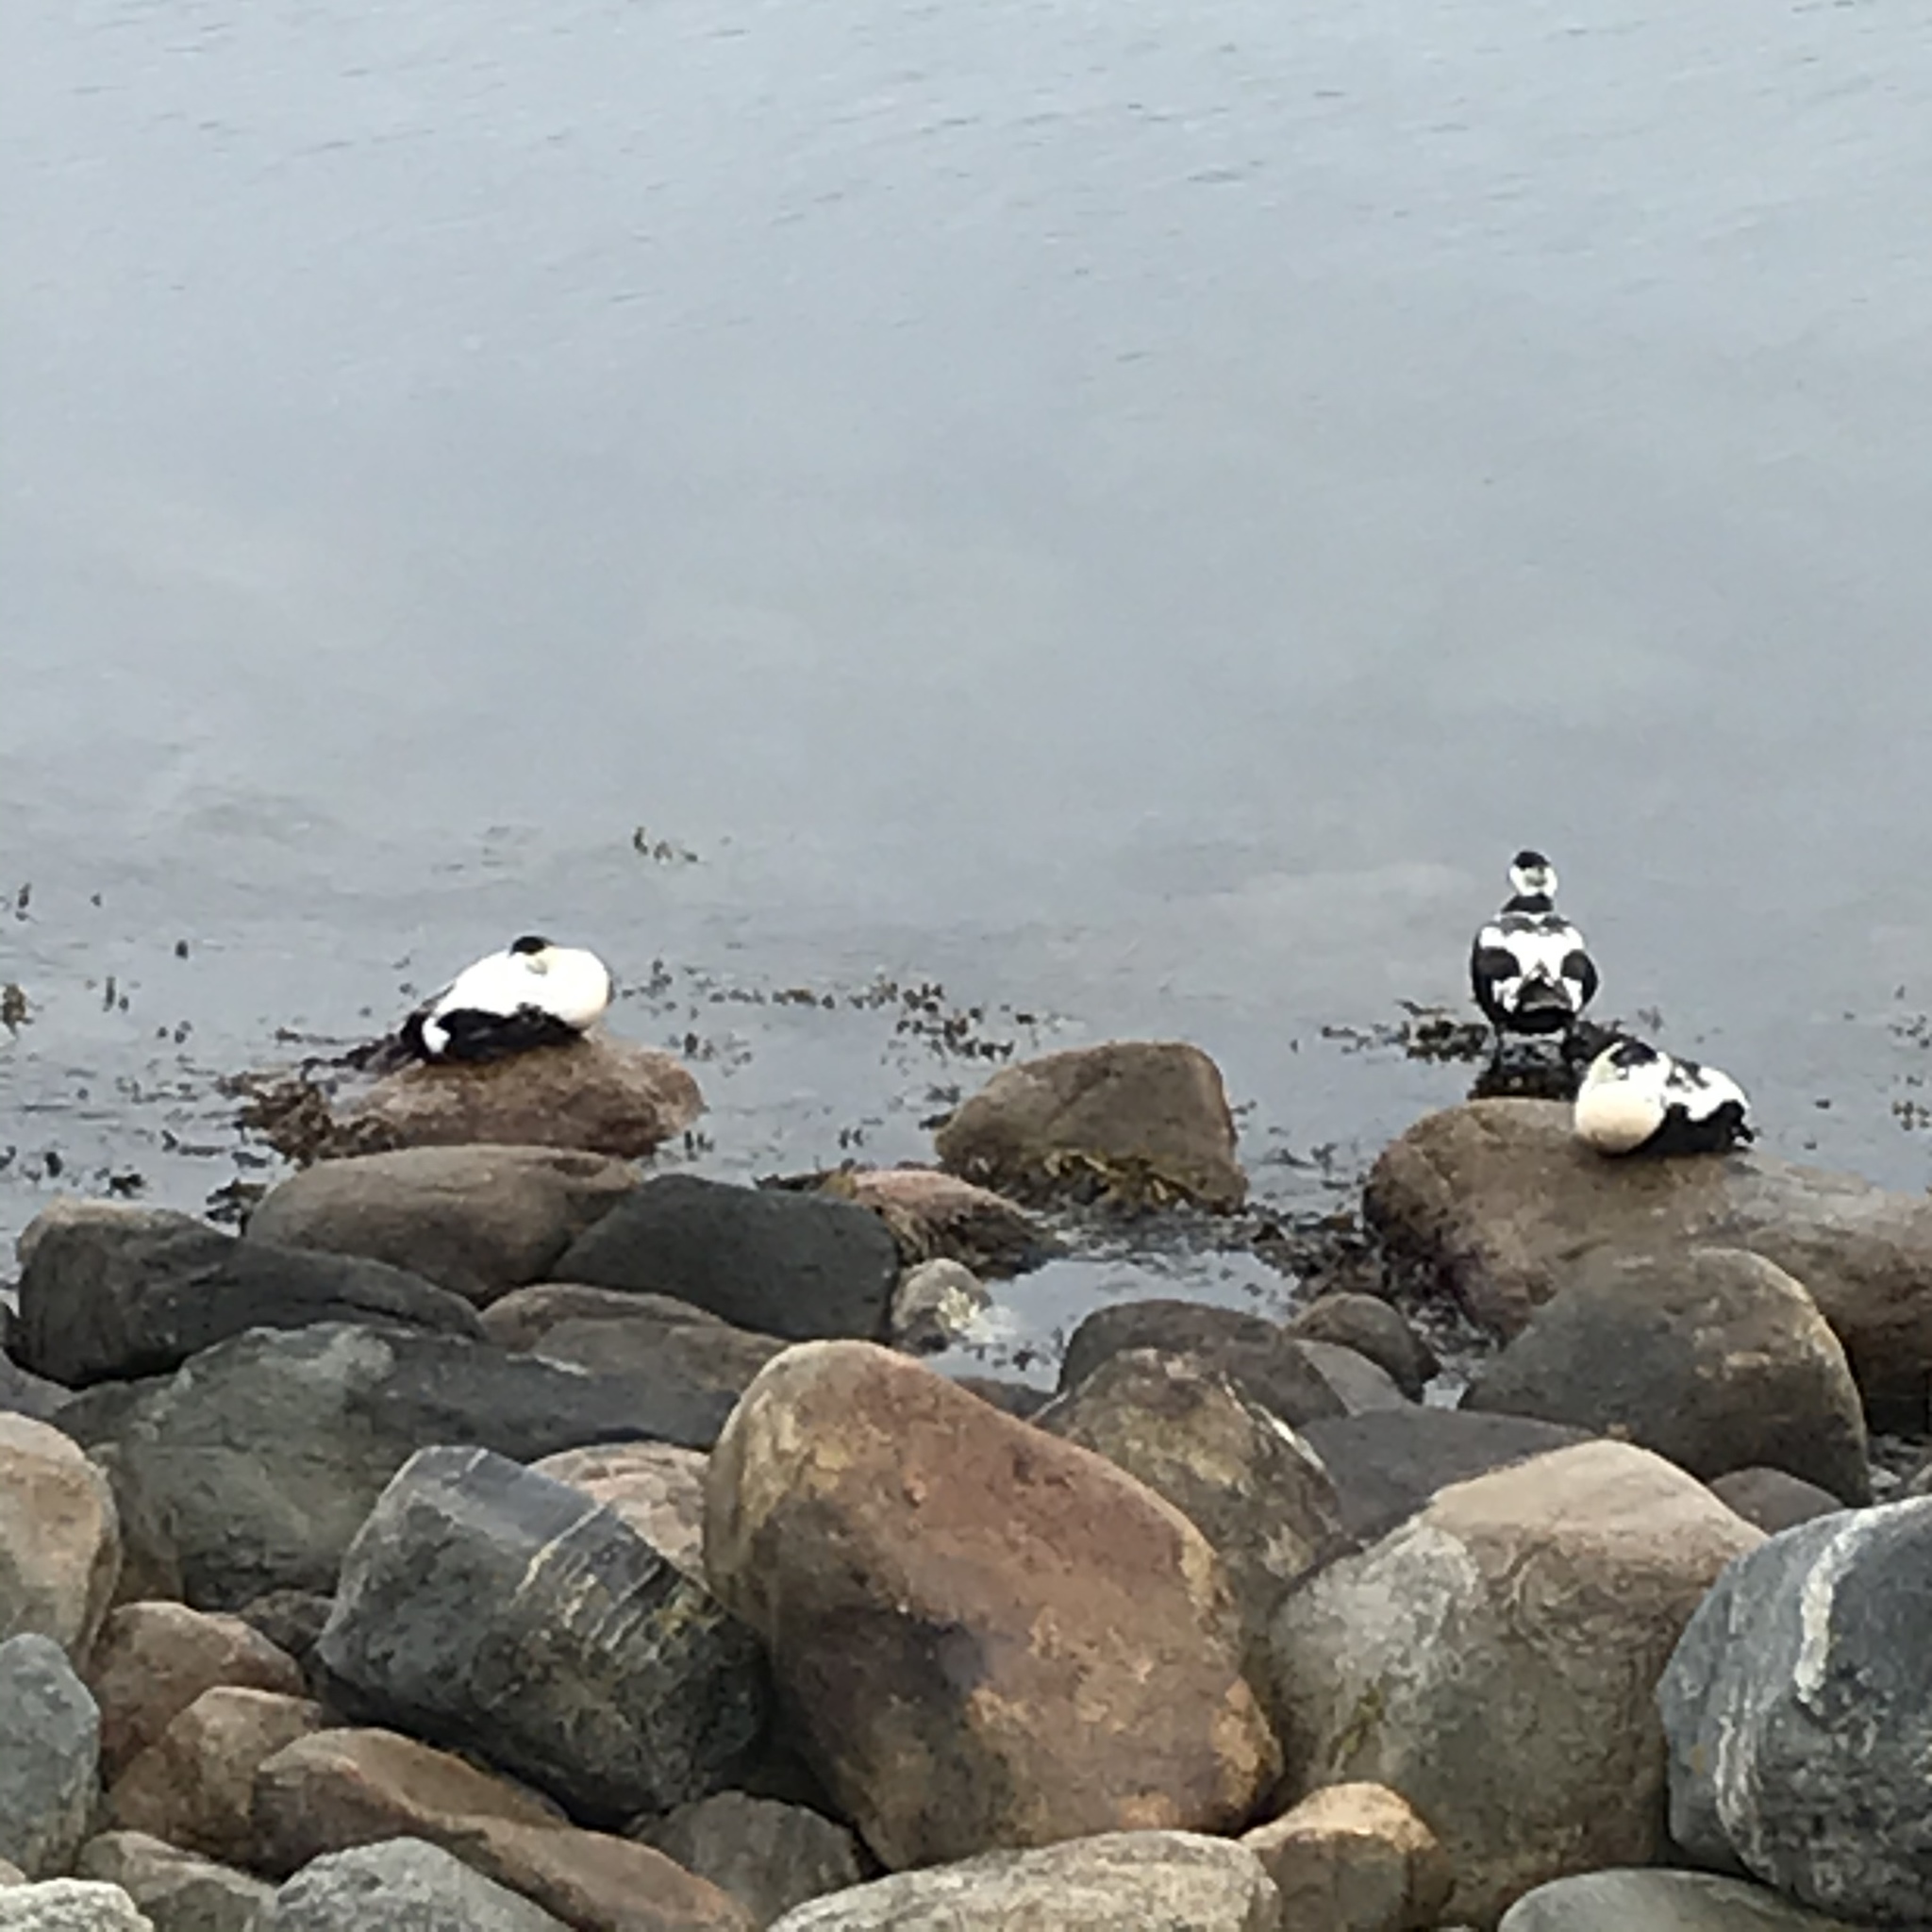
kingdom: Animalia
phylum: Chordata
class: Aves
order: Anseriformes
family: Anatidae
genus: Somateria
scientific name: Somateria mollissima
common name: Common eider
